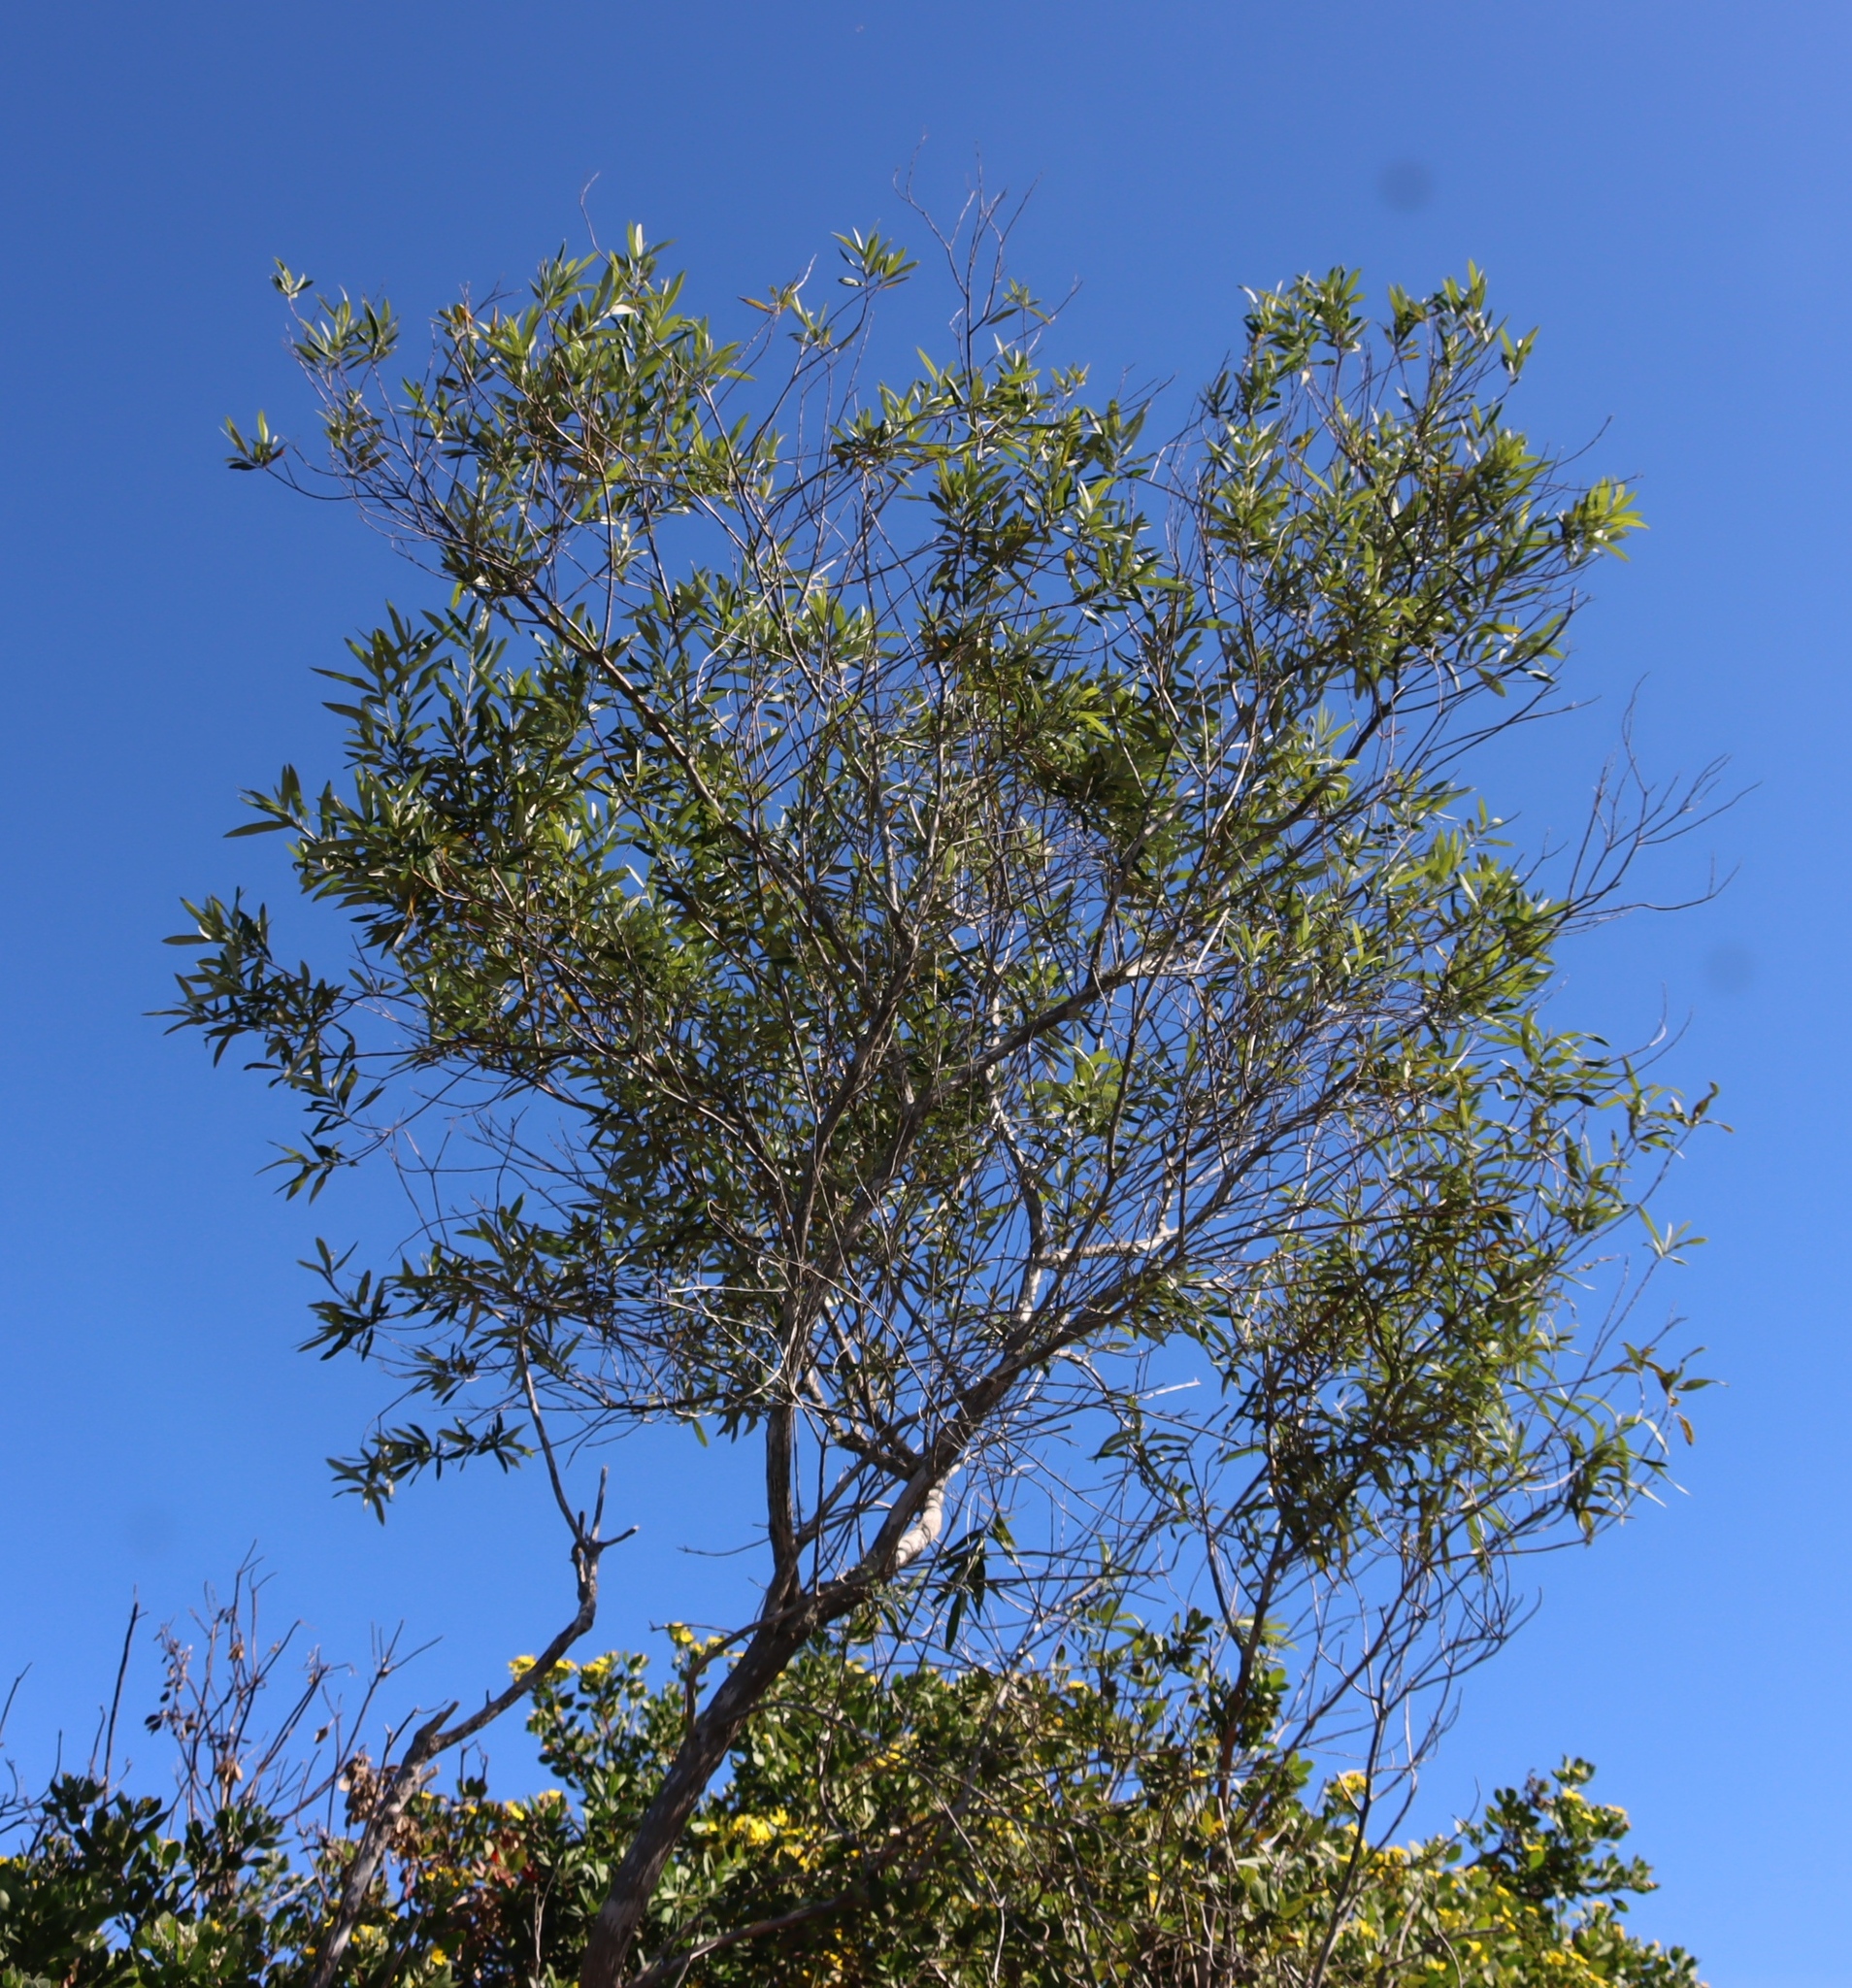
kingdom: Plantae
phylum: Tracheophyta
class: Magnoliopsida
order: Lamiales
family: Scrophulariaceae
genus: Buddleja
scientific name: Buddleja saligna
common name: False olive
